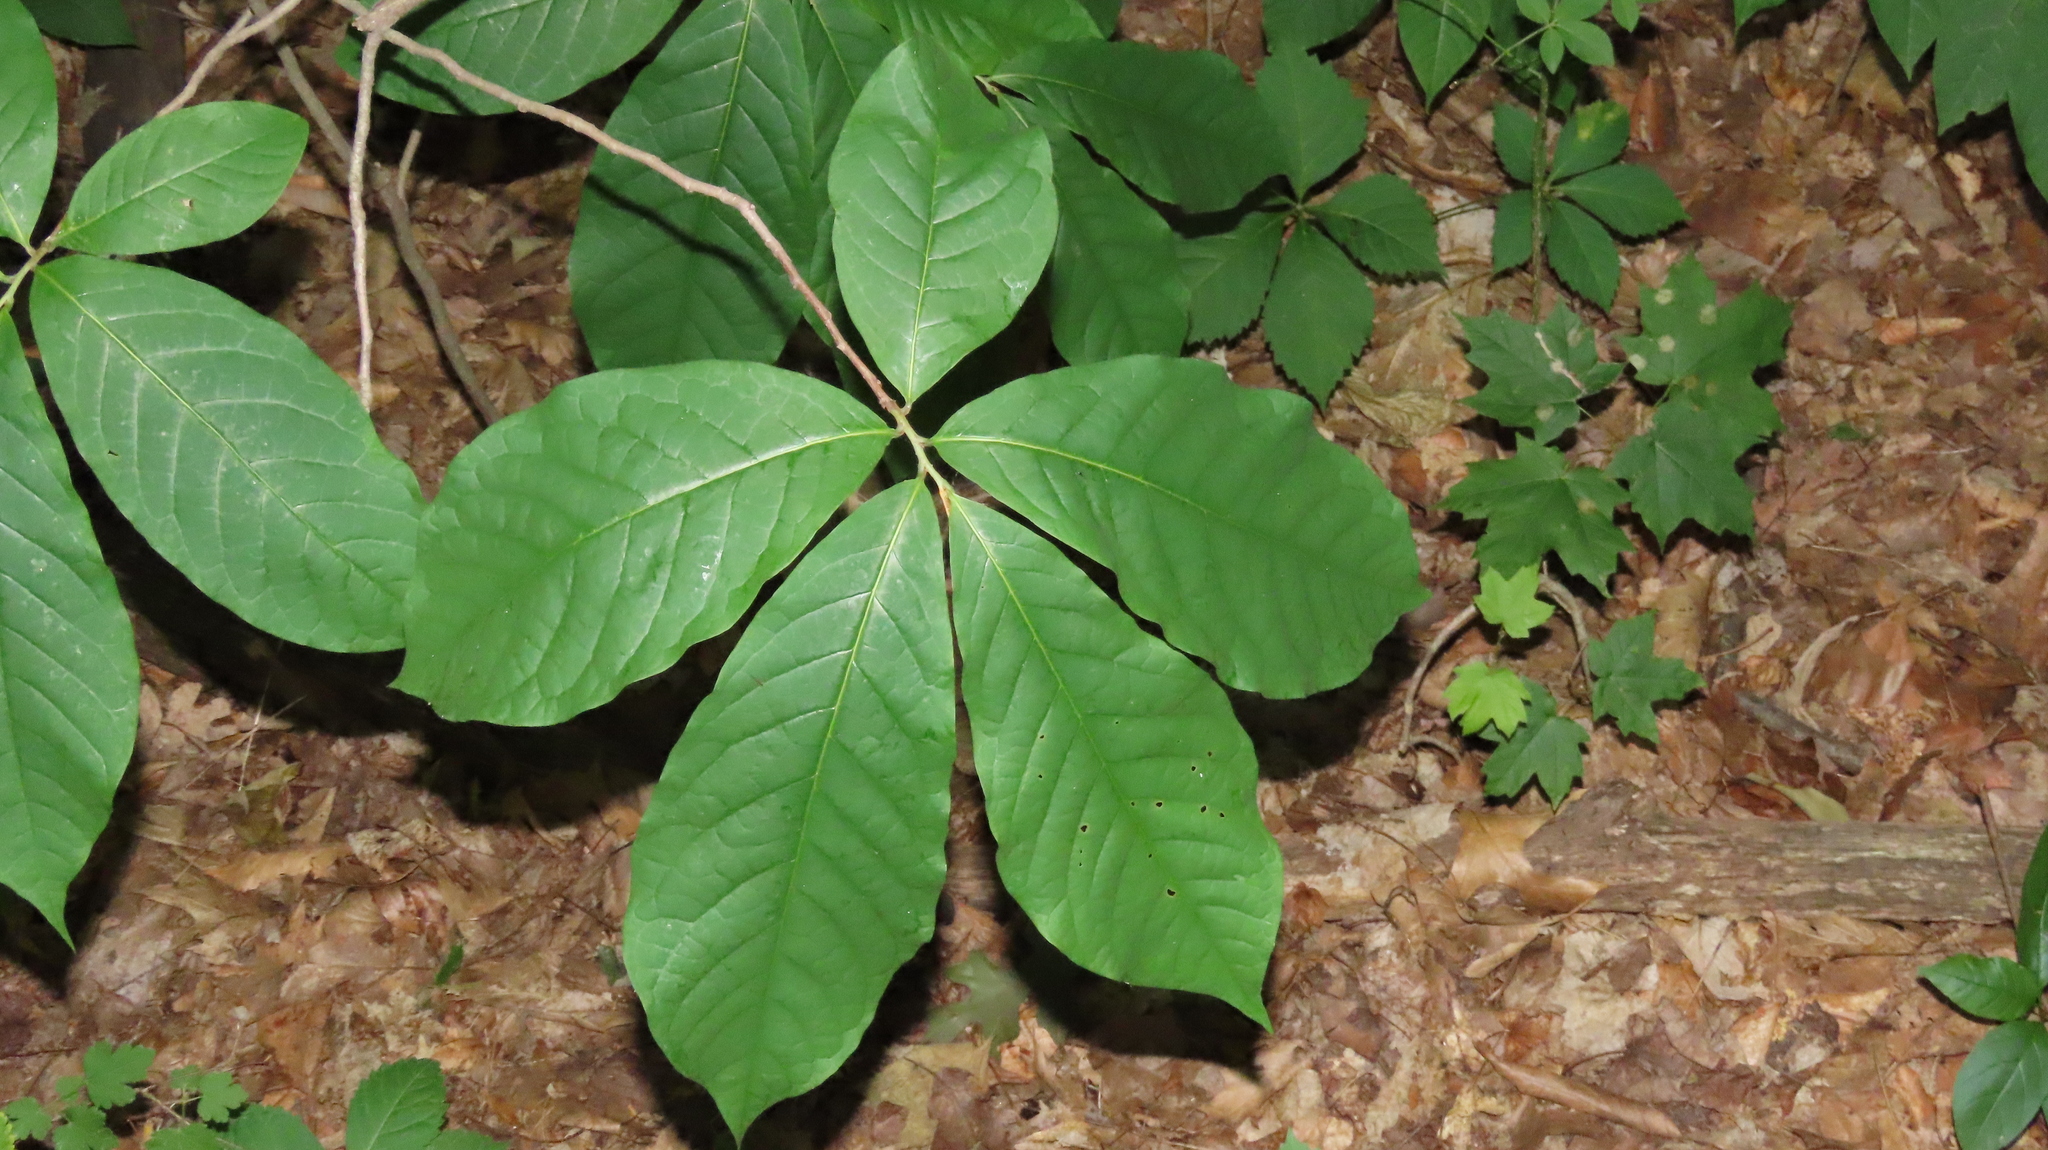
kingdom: Plantae
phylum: Tracheophyta
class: Magnoliopsida
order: Magnoliales
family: Annonaceae
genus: Asimina
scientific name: Asimina triloba
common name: Dog-banana
